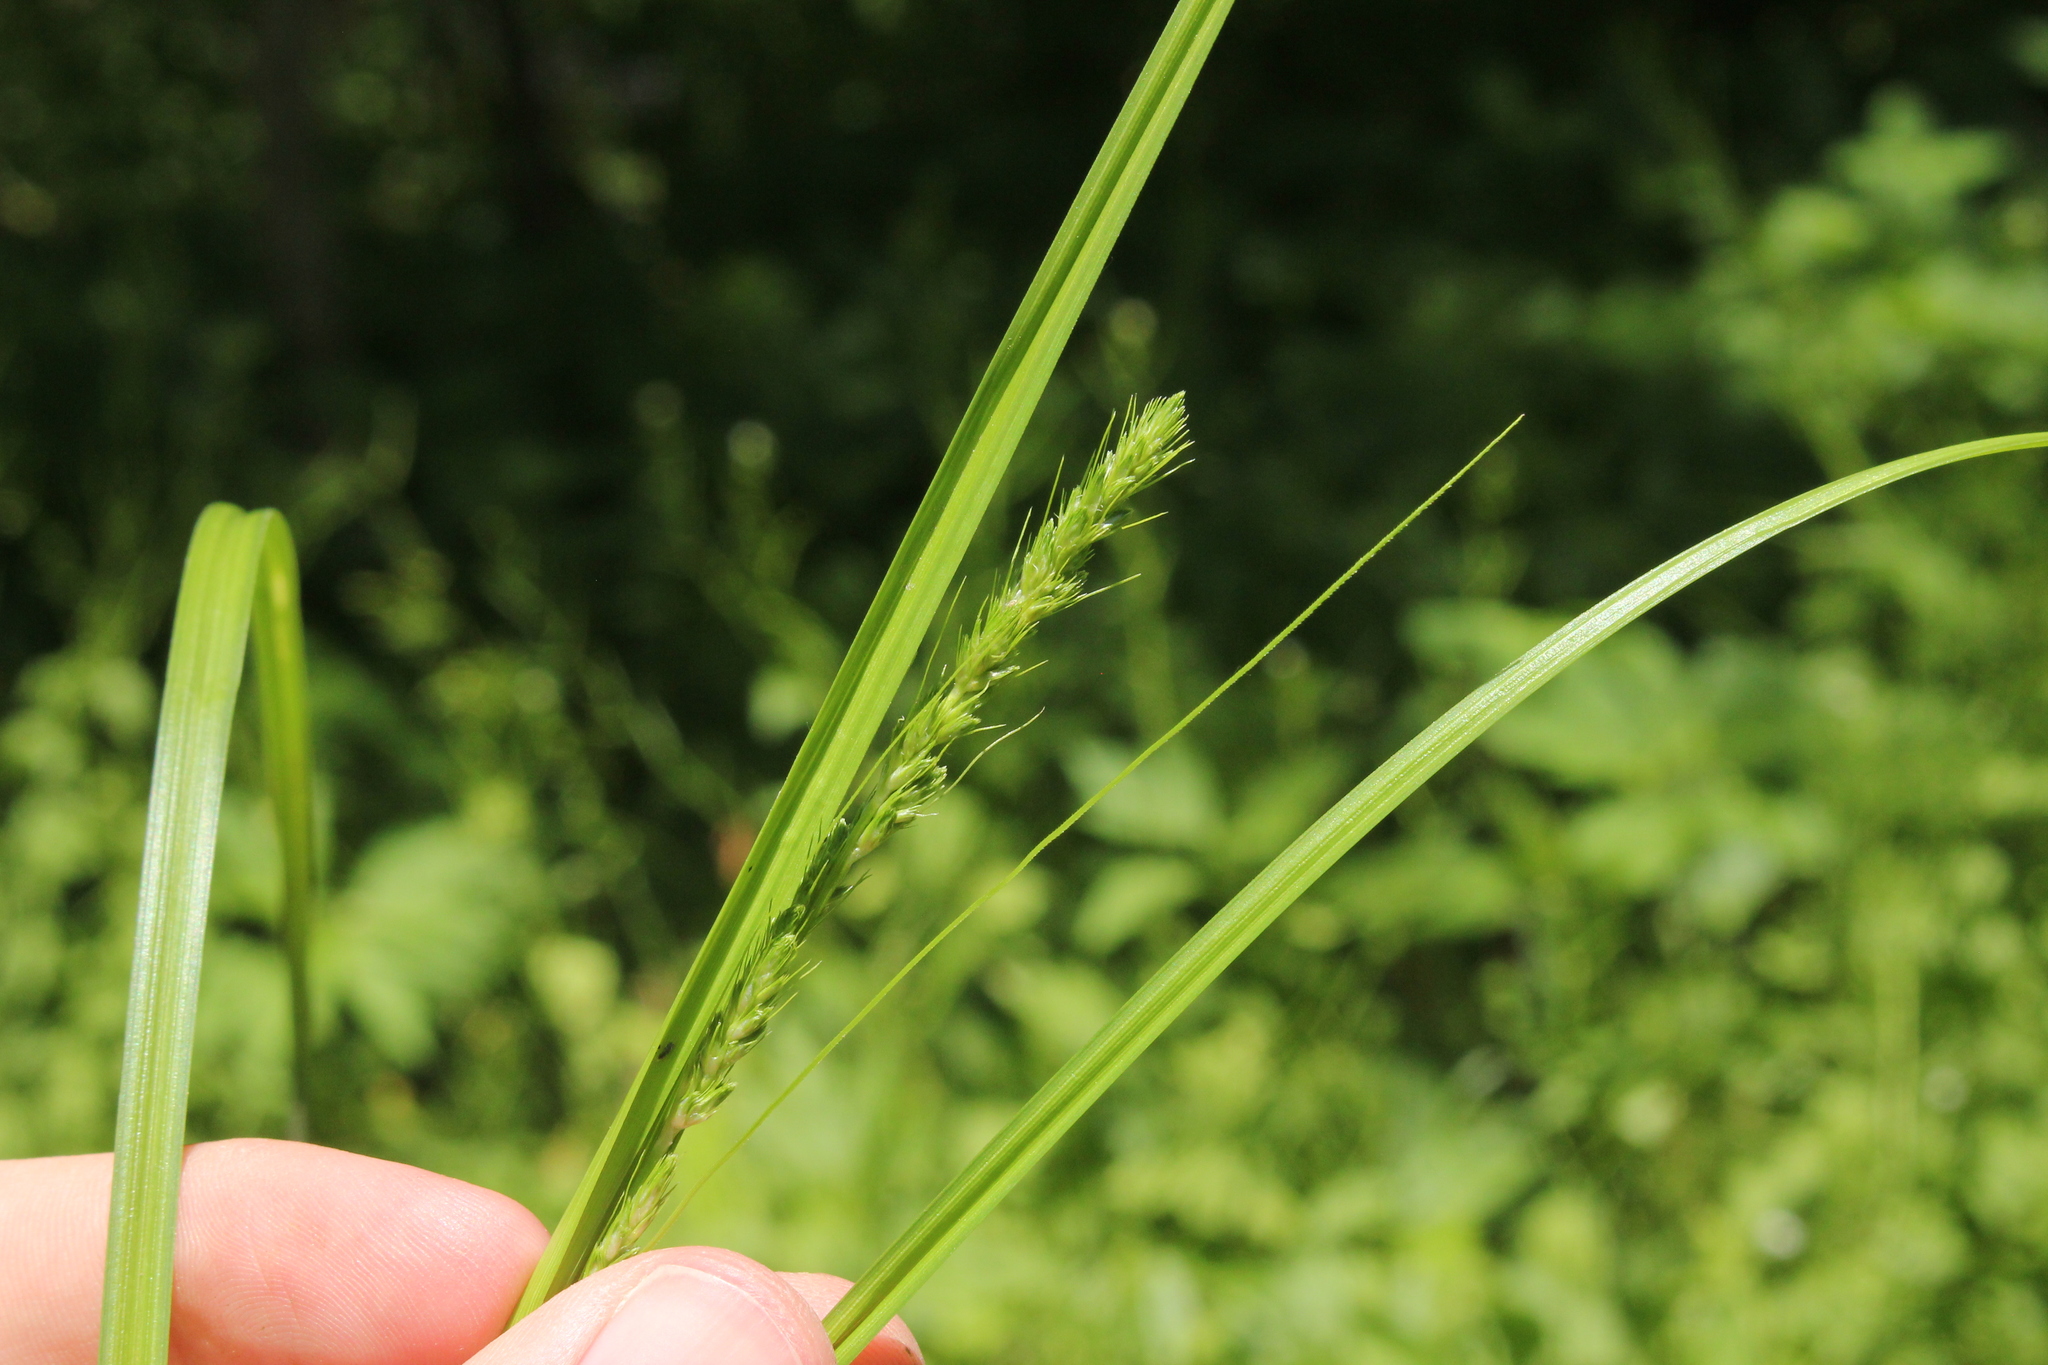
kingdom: Plantae
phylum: Tracheophyta
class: Liliopsida
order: Poales
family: Cyperaceae
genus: Carex
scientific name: Carex vulpinoidea
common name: American fox-sedge
